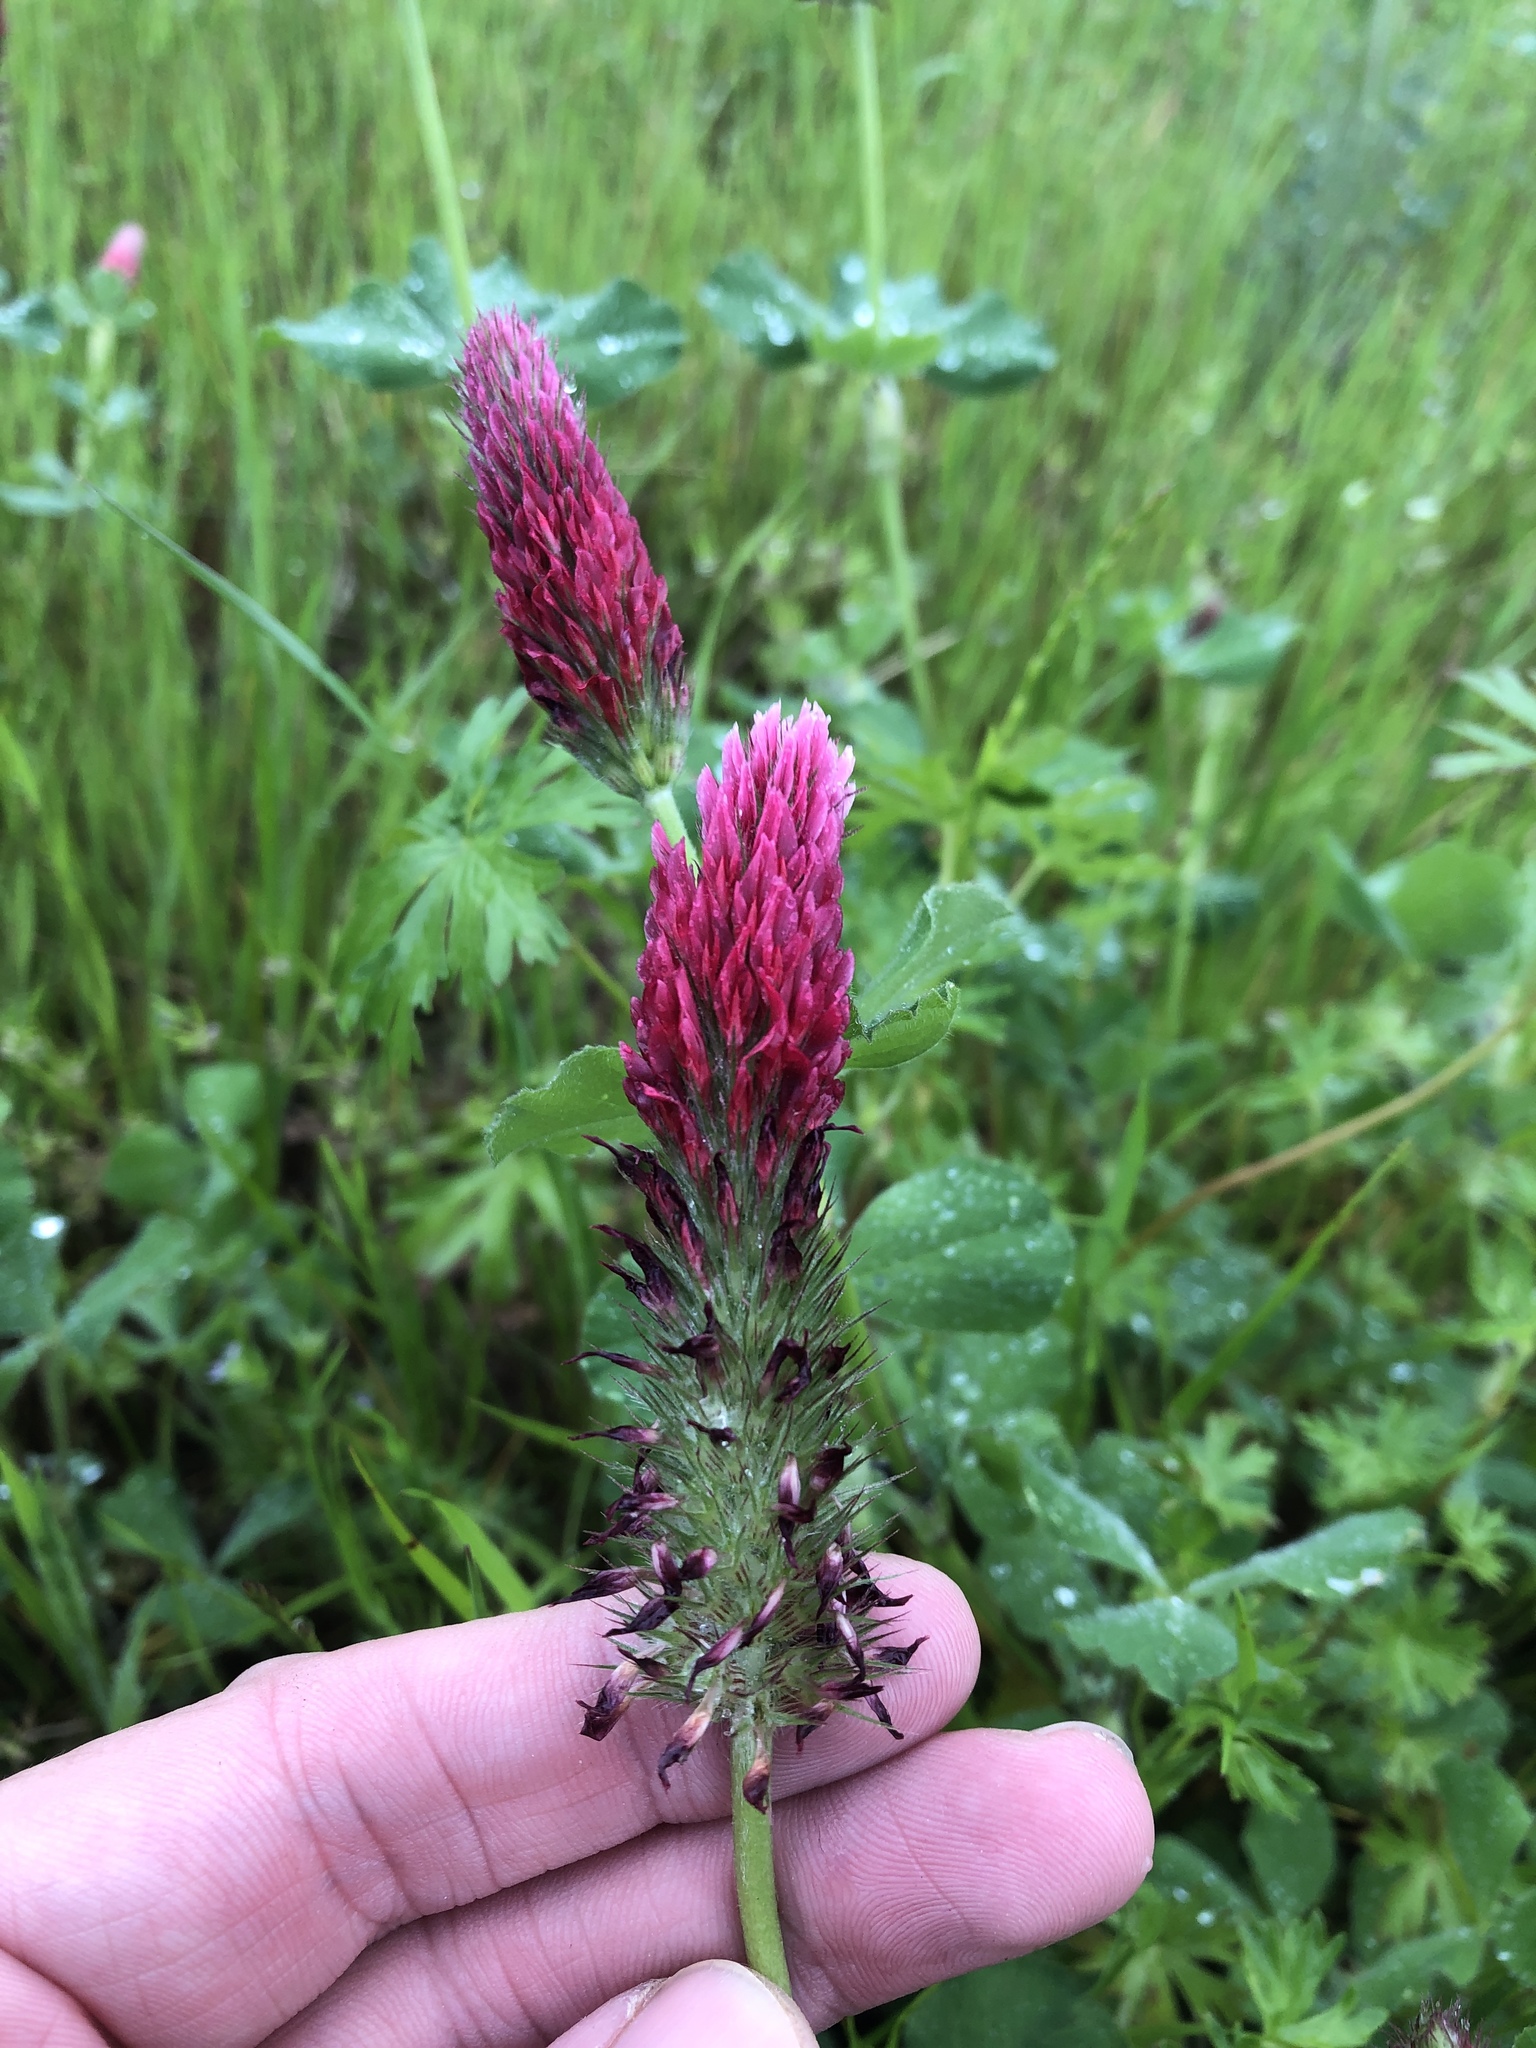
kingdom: Plantae
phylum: Tracheophyta
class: Magnoliopsida
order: Fabales
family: Fabaceae
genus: Trifolium
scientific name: Trifolium incarnatum
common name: Crimson clover
